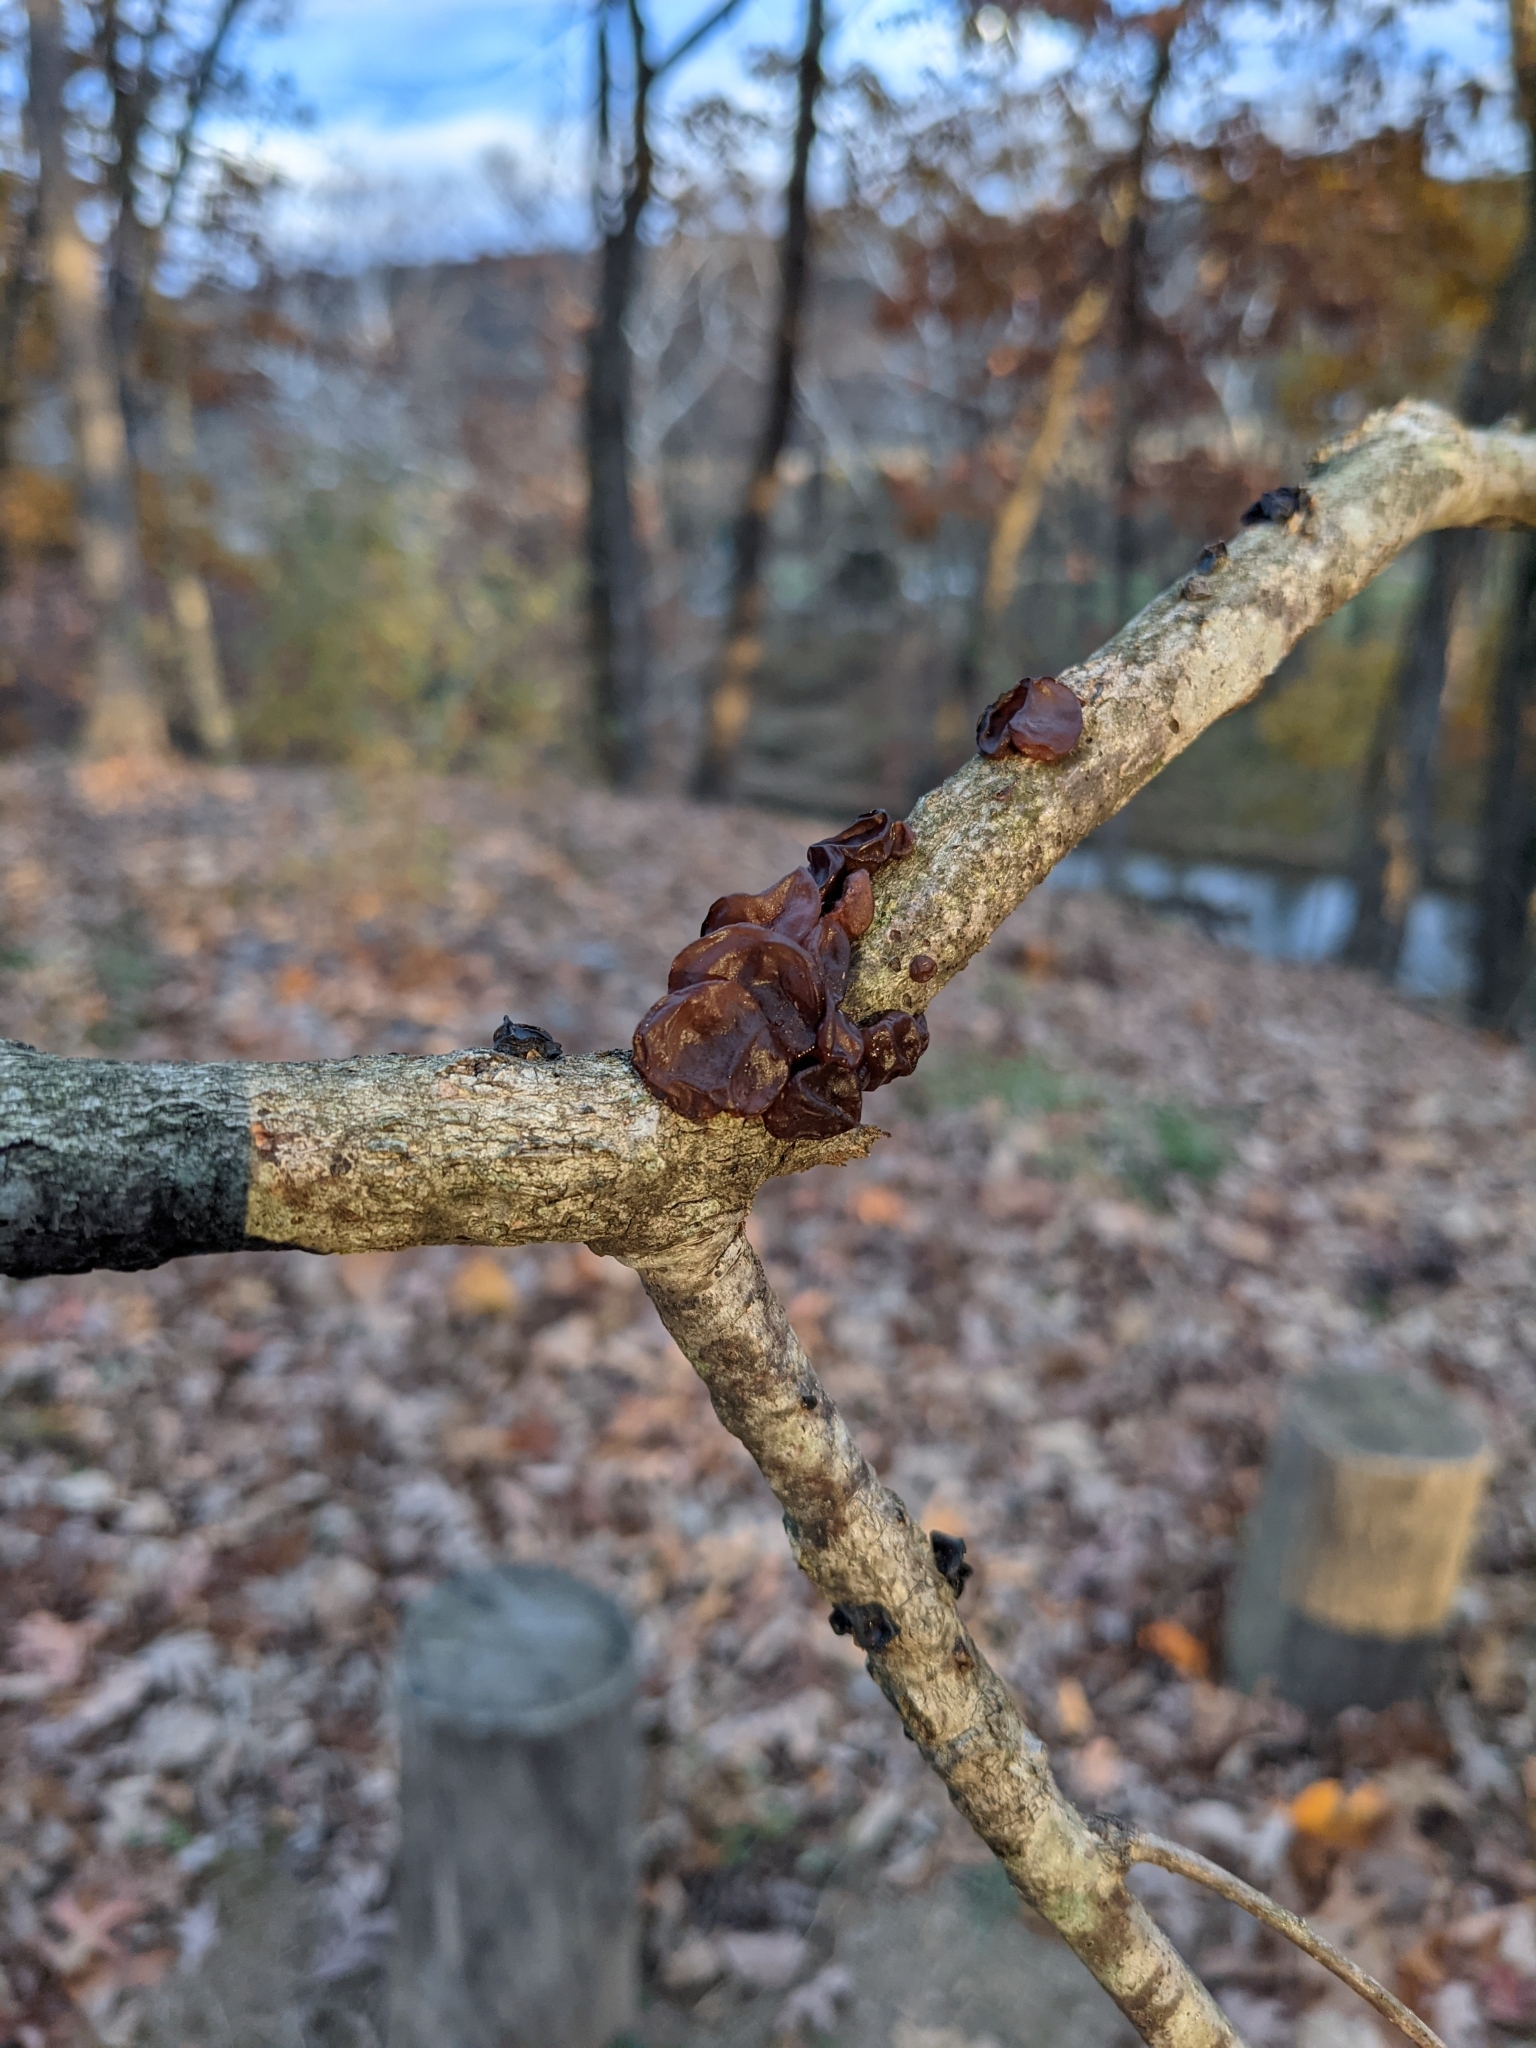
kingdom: Fungi
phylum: Basidiomycota
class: Agaricomycetes
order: Auriculariales
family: Auriculariaceae
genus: Exidia
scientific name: Exidia
